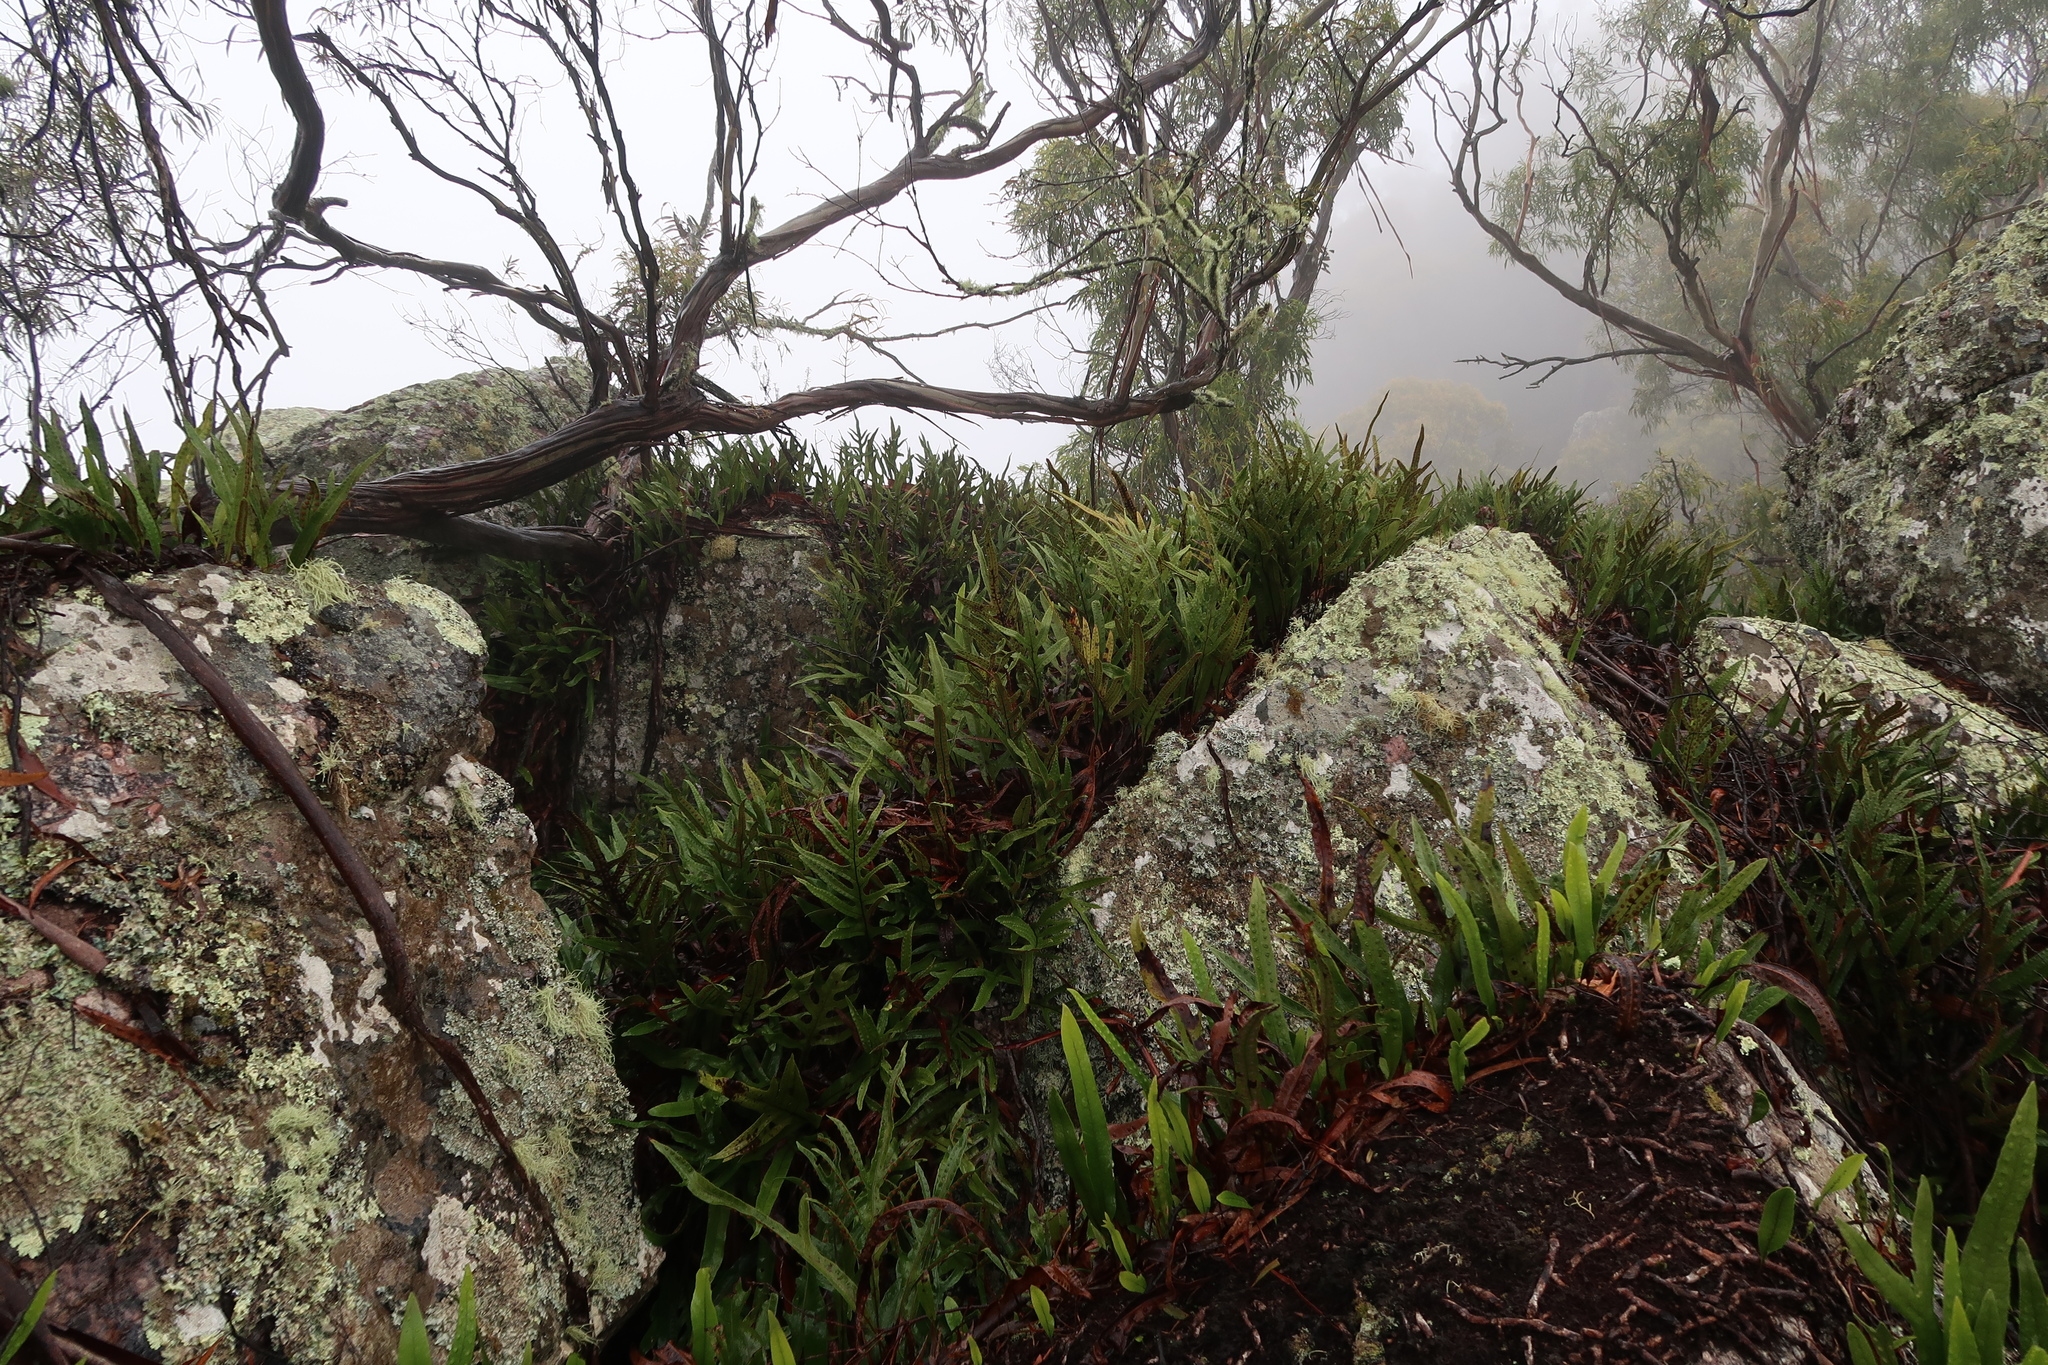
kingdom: Plantae
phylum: Tracheophyta
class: Polypodiopsida
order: Polypodiales
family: Polypodiaceae
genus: Lecanopteris
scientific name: Lecanopteris pustulata
